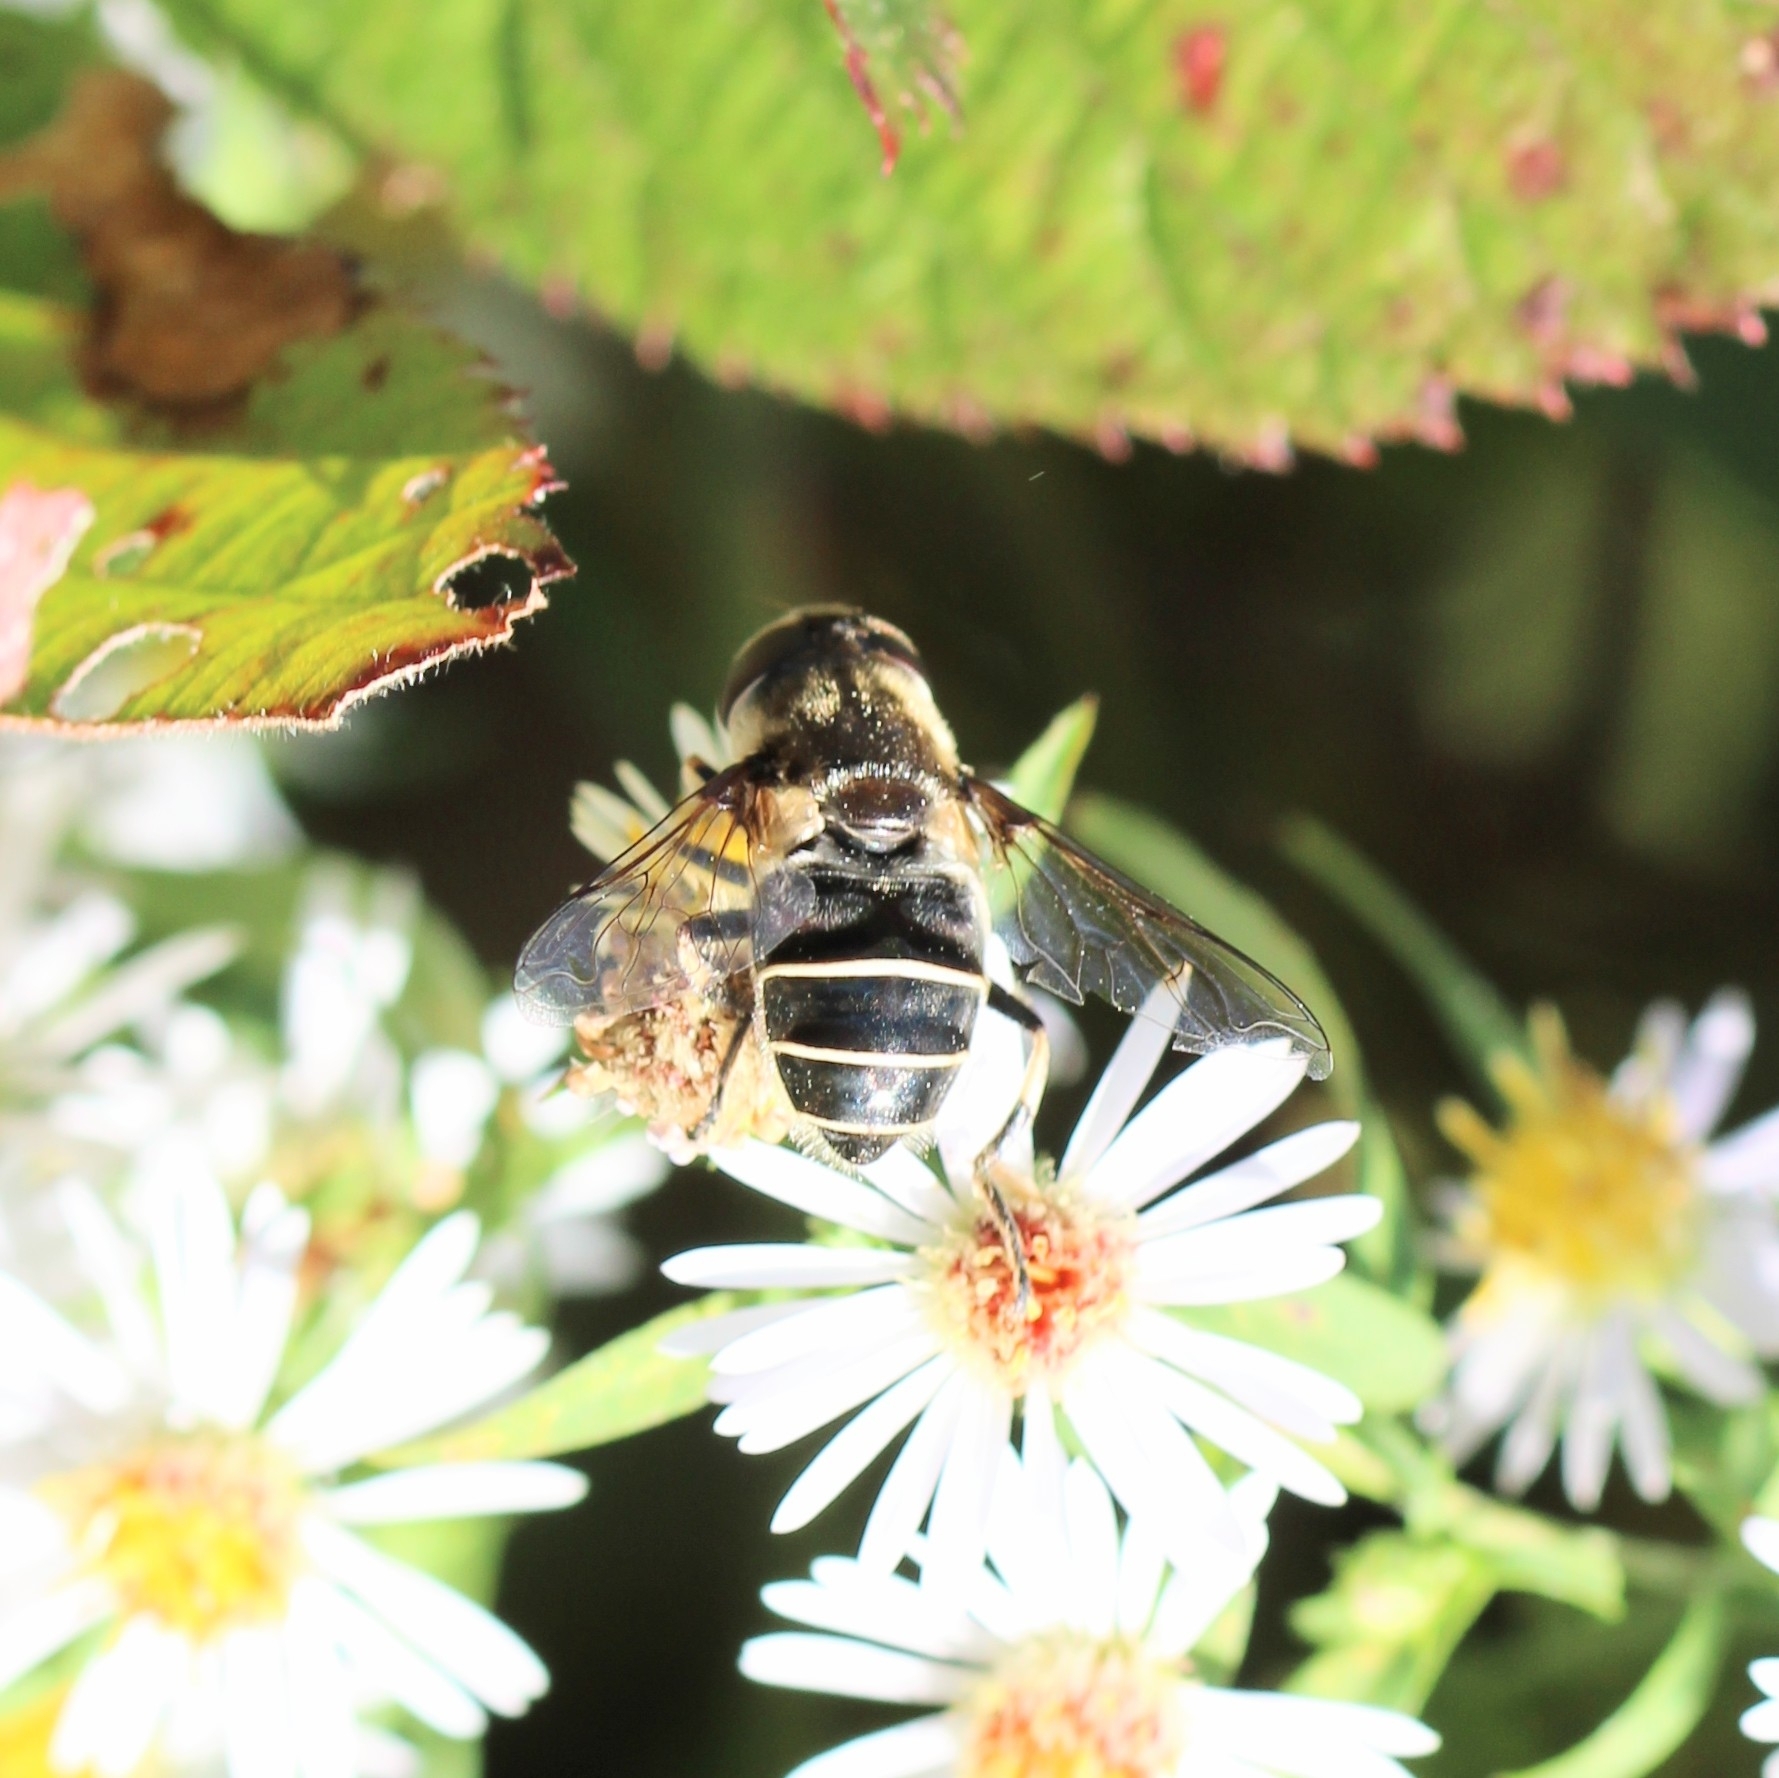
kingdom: Animalia
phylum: Arthropoda
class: Insecta
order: Diptera
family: Syrphidae
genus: Eristalis
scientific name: Eristalis dimidiata
